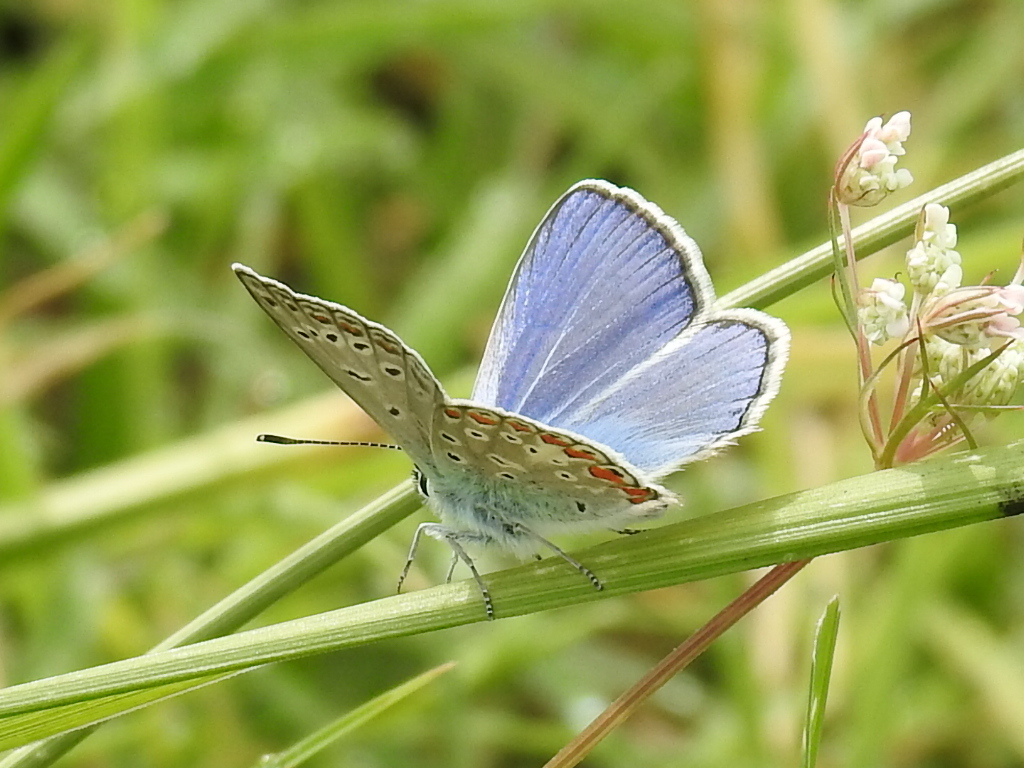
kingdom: Animalia
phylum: Arthropoda
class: Insecta
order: Lepidoptera
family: Lycaenidae
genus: Polyommatus
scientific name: Polyommatus icarus
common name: Common blue
